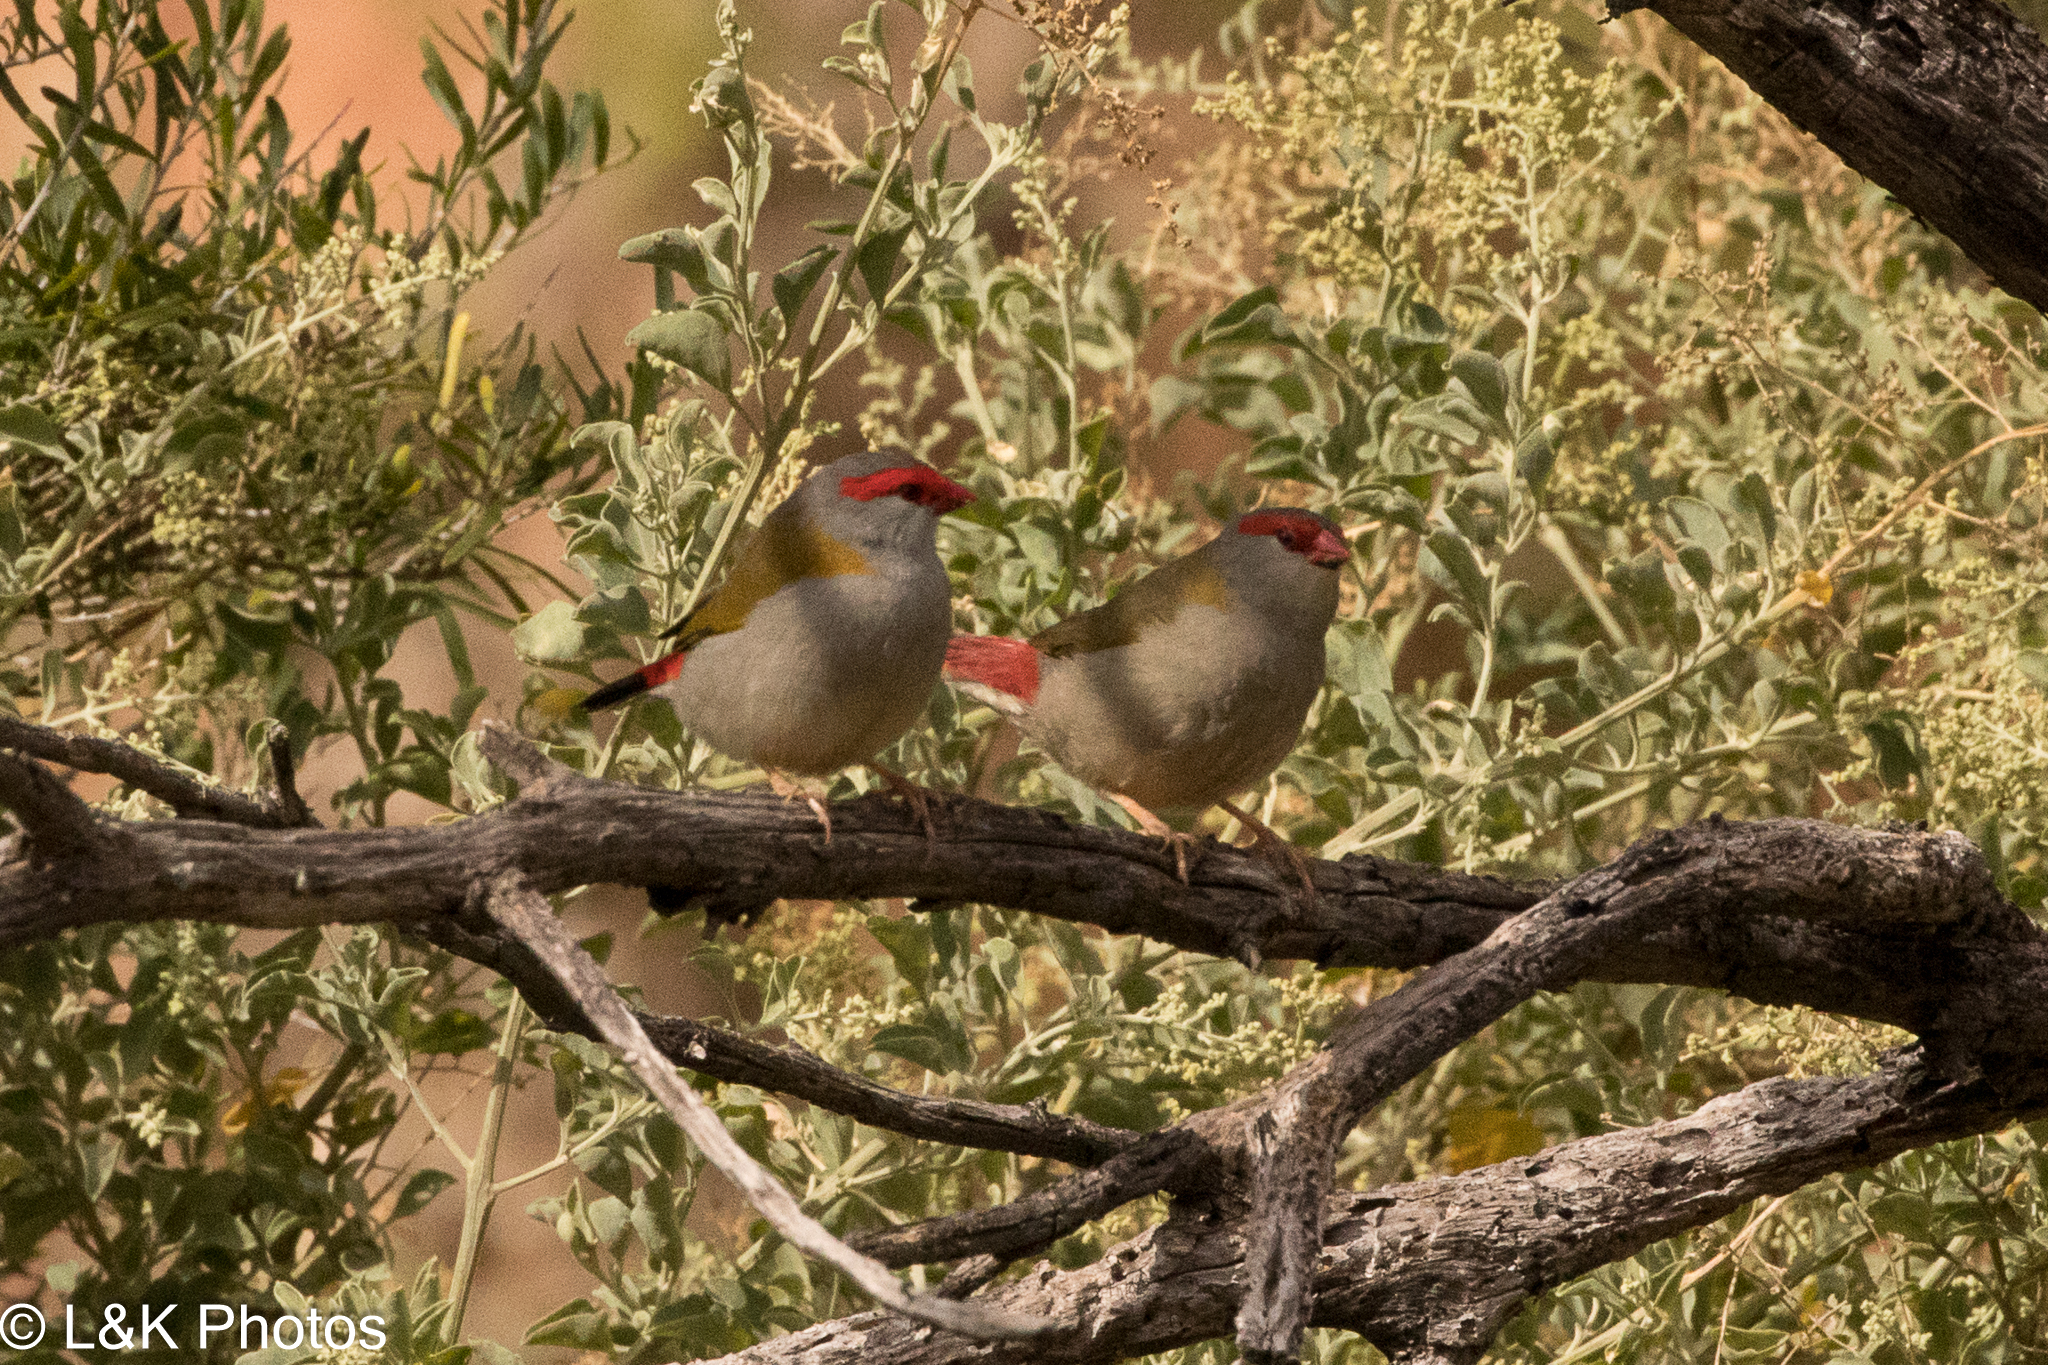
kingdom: Animalia
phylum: Chordata
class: Aves
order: Passeriformes
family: Estrildidae
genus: Neochmia
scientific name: Neochmia temporalis
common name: Red-browed finch
